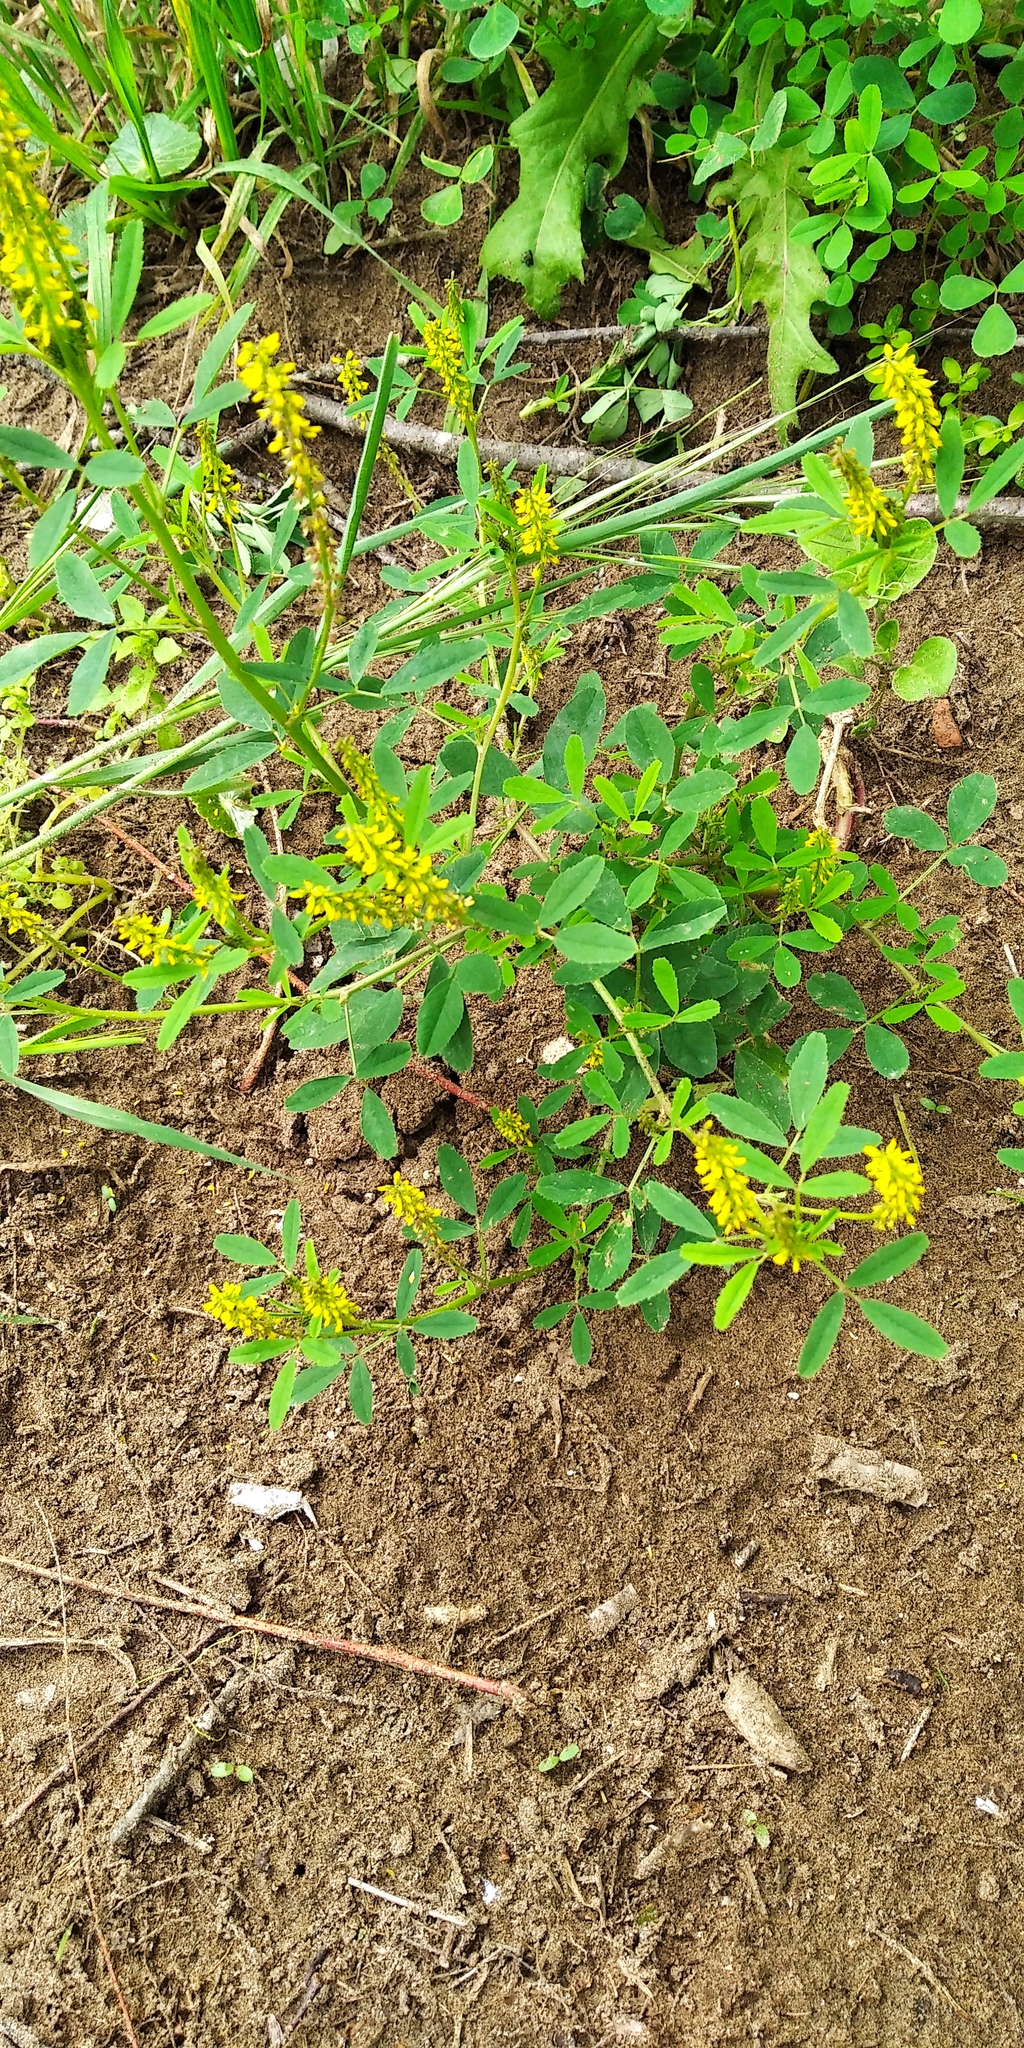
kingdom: Plantae
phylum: Tracheophyta
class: Magnoliopsida
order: Fabales
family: Fabaceae
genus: Melilotus
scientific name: Melilotus indicus
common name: Small melilot
